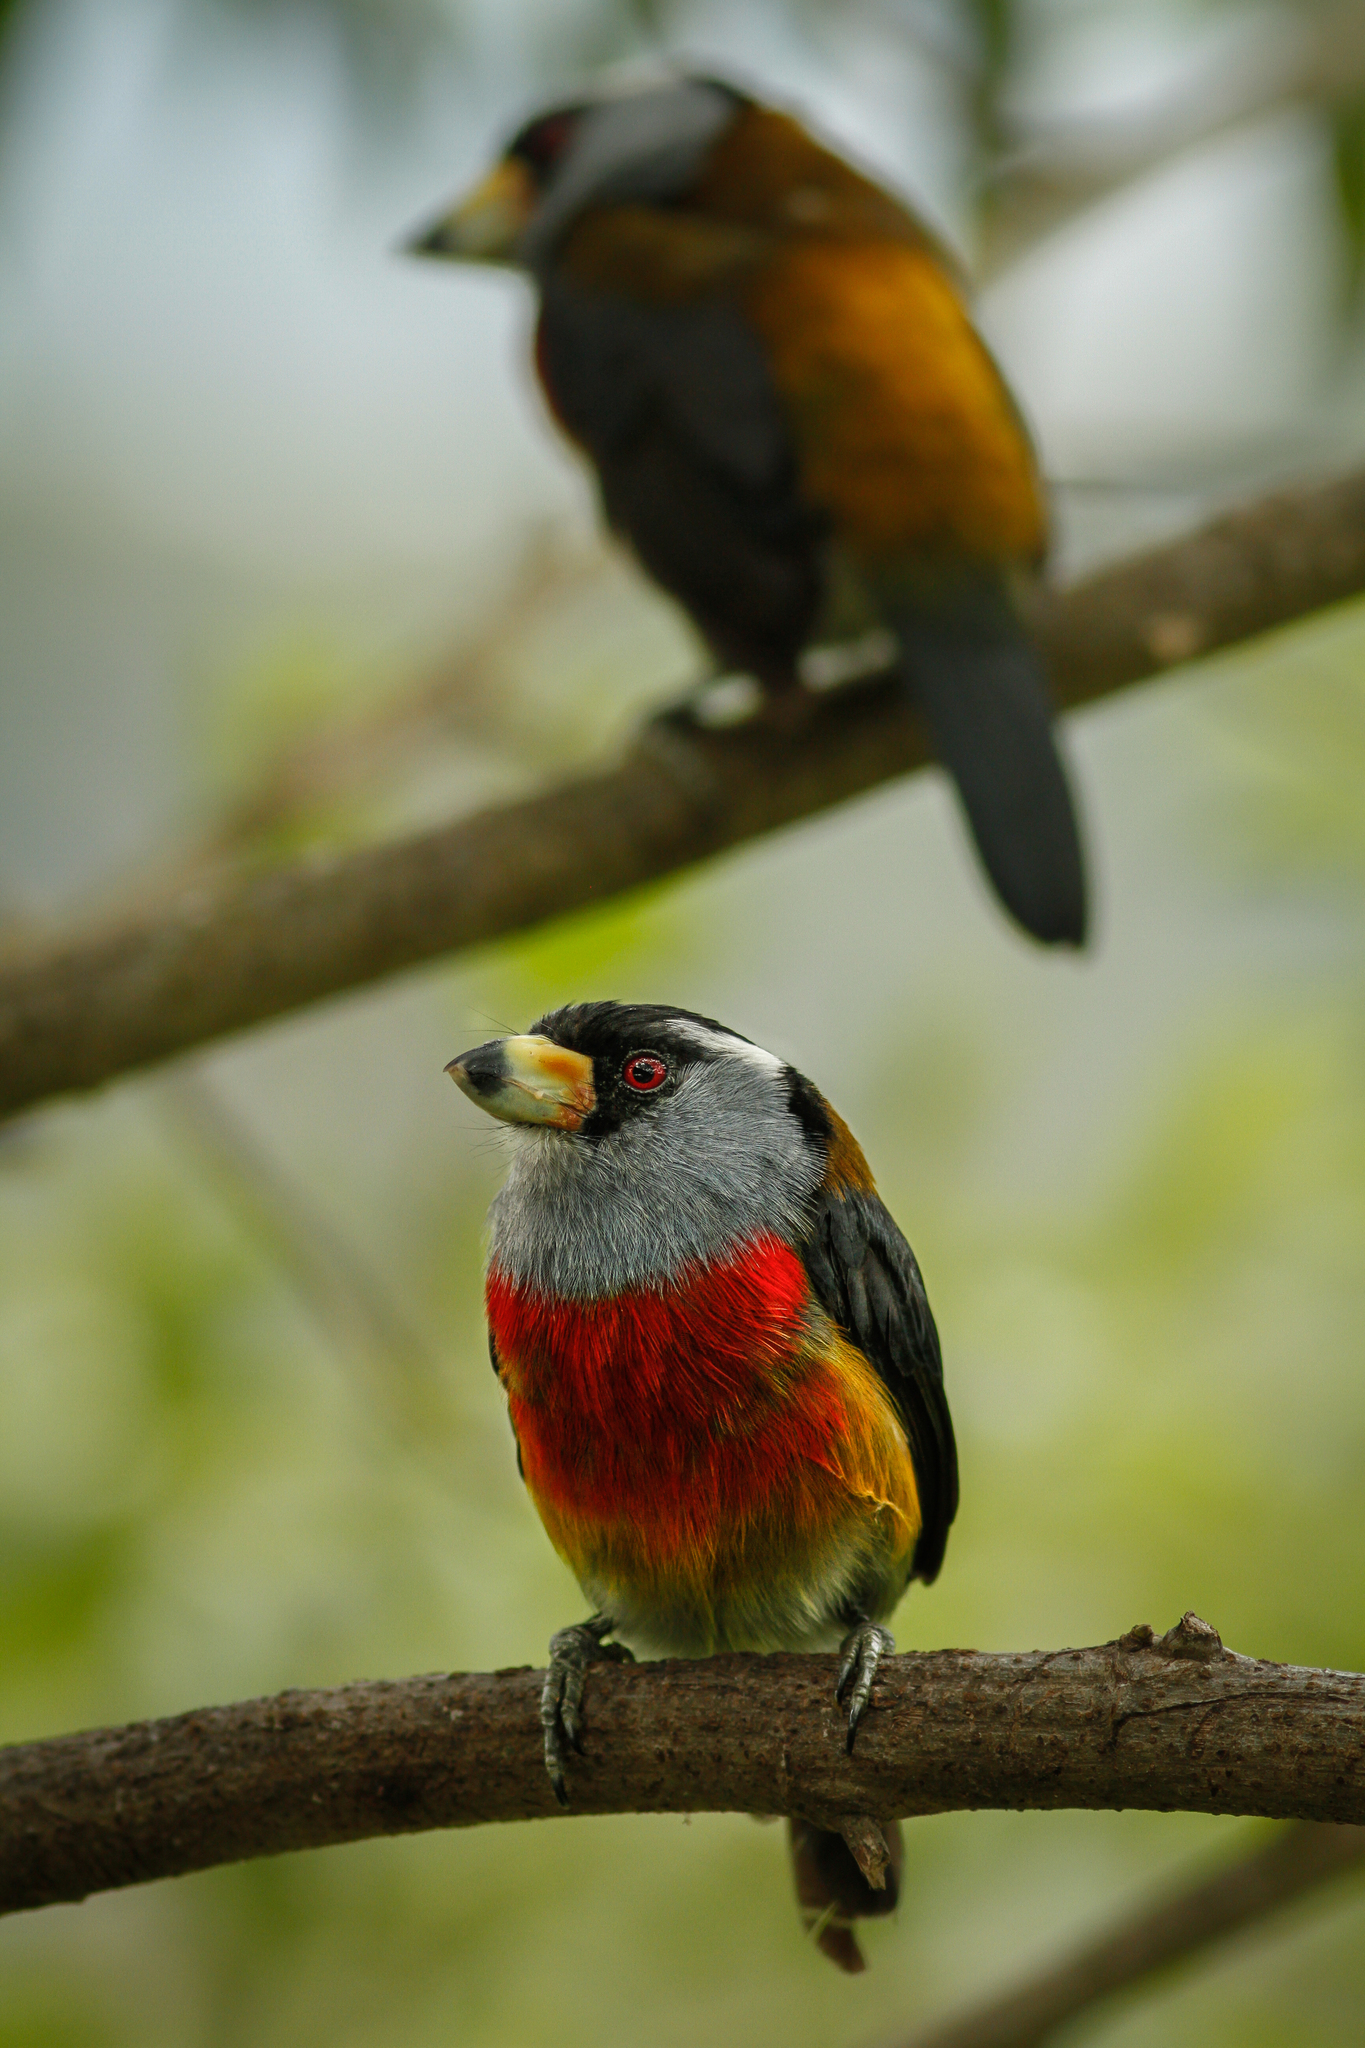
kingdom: Animalia
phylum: Chordata
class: Aves
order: Piciformes
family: Semnornithidae
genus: Semnornis
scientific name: Semnornis ramphastinus
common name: Toucan barbet
